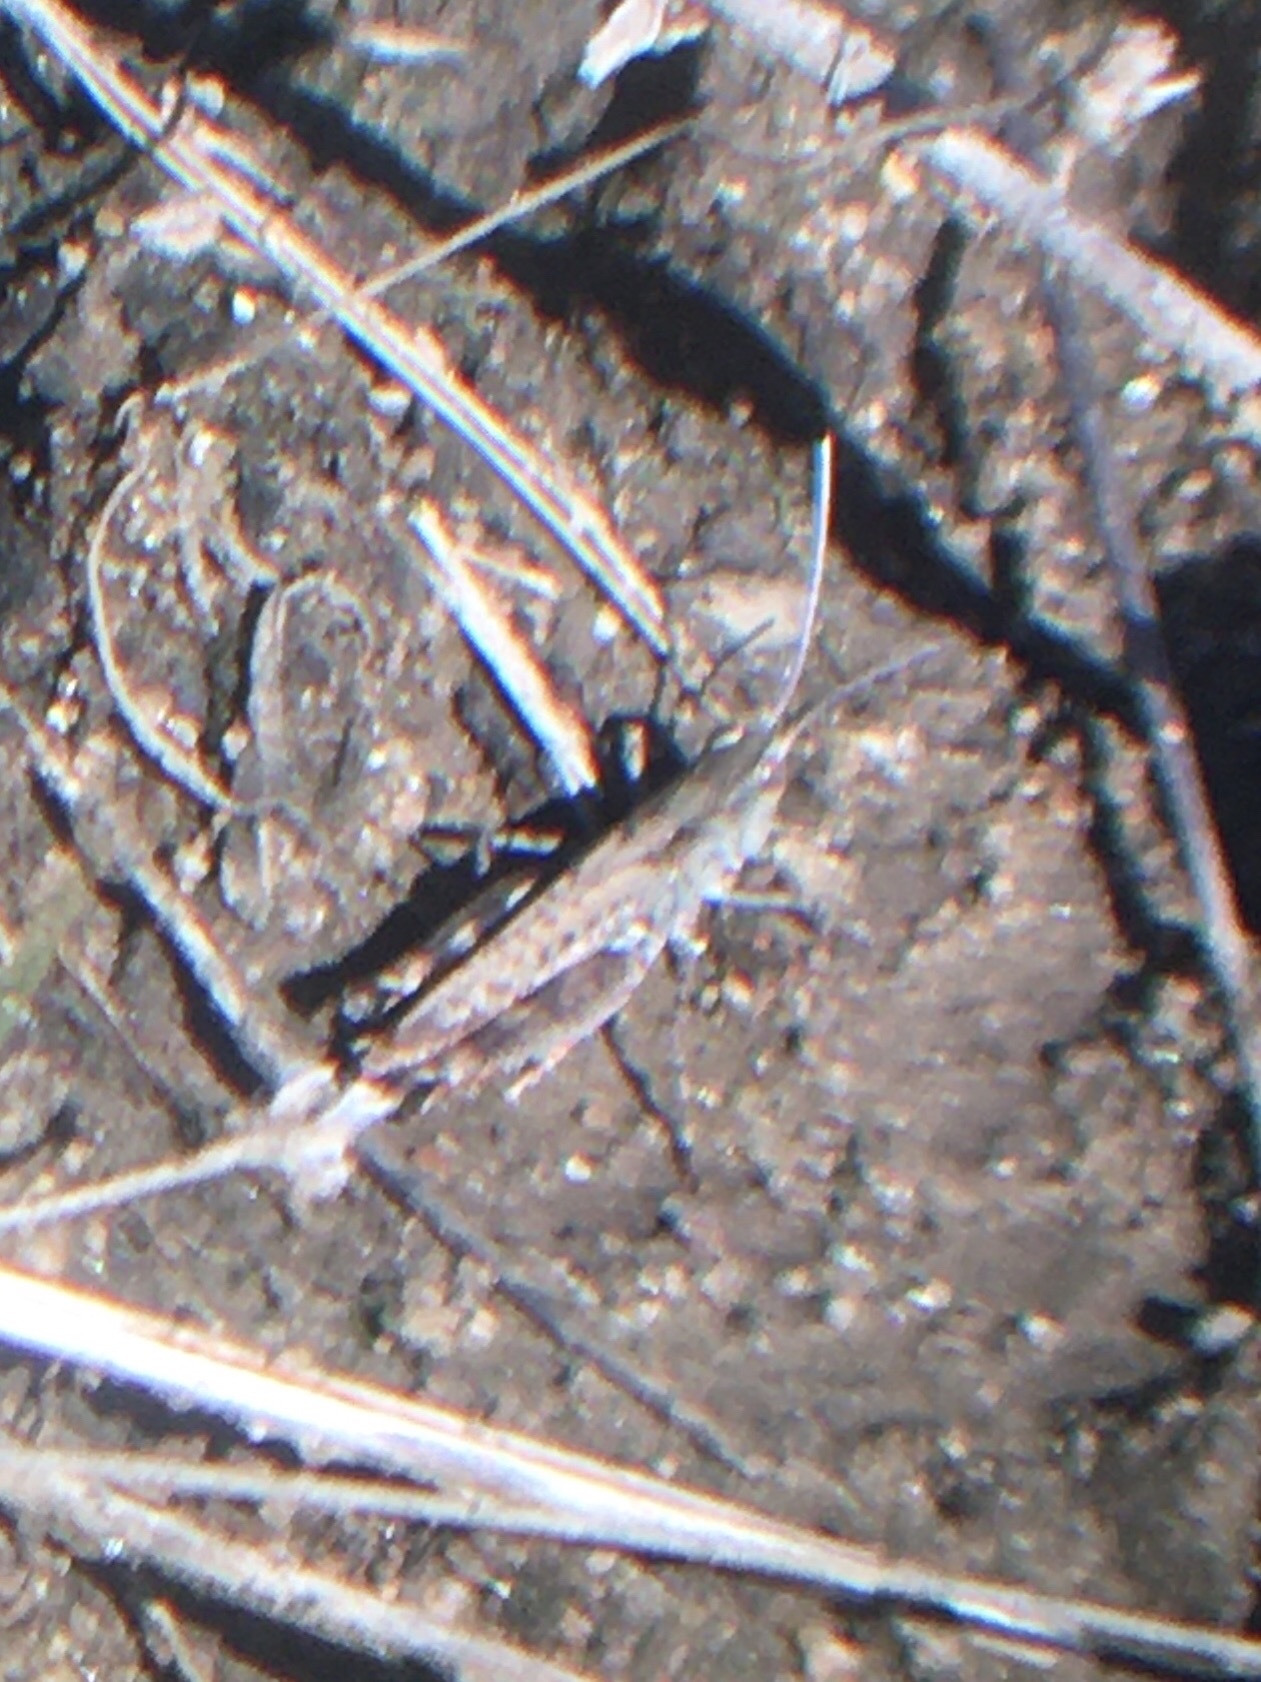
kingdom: Animalia
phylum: Arthropoda
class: Insecta
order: Orthoptera
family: Acrididae
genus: Ageneotettix
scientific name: Ageneotettix deorum
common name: White-whiskered grasshopper
